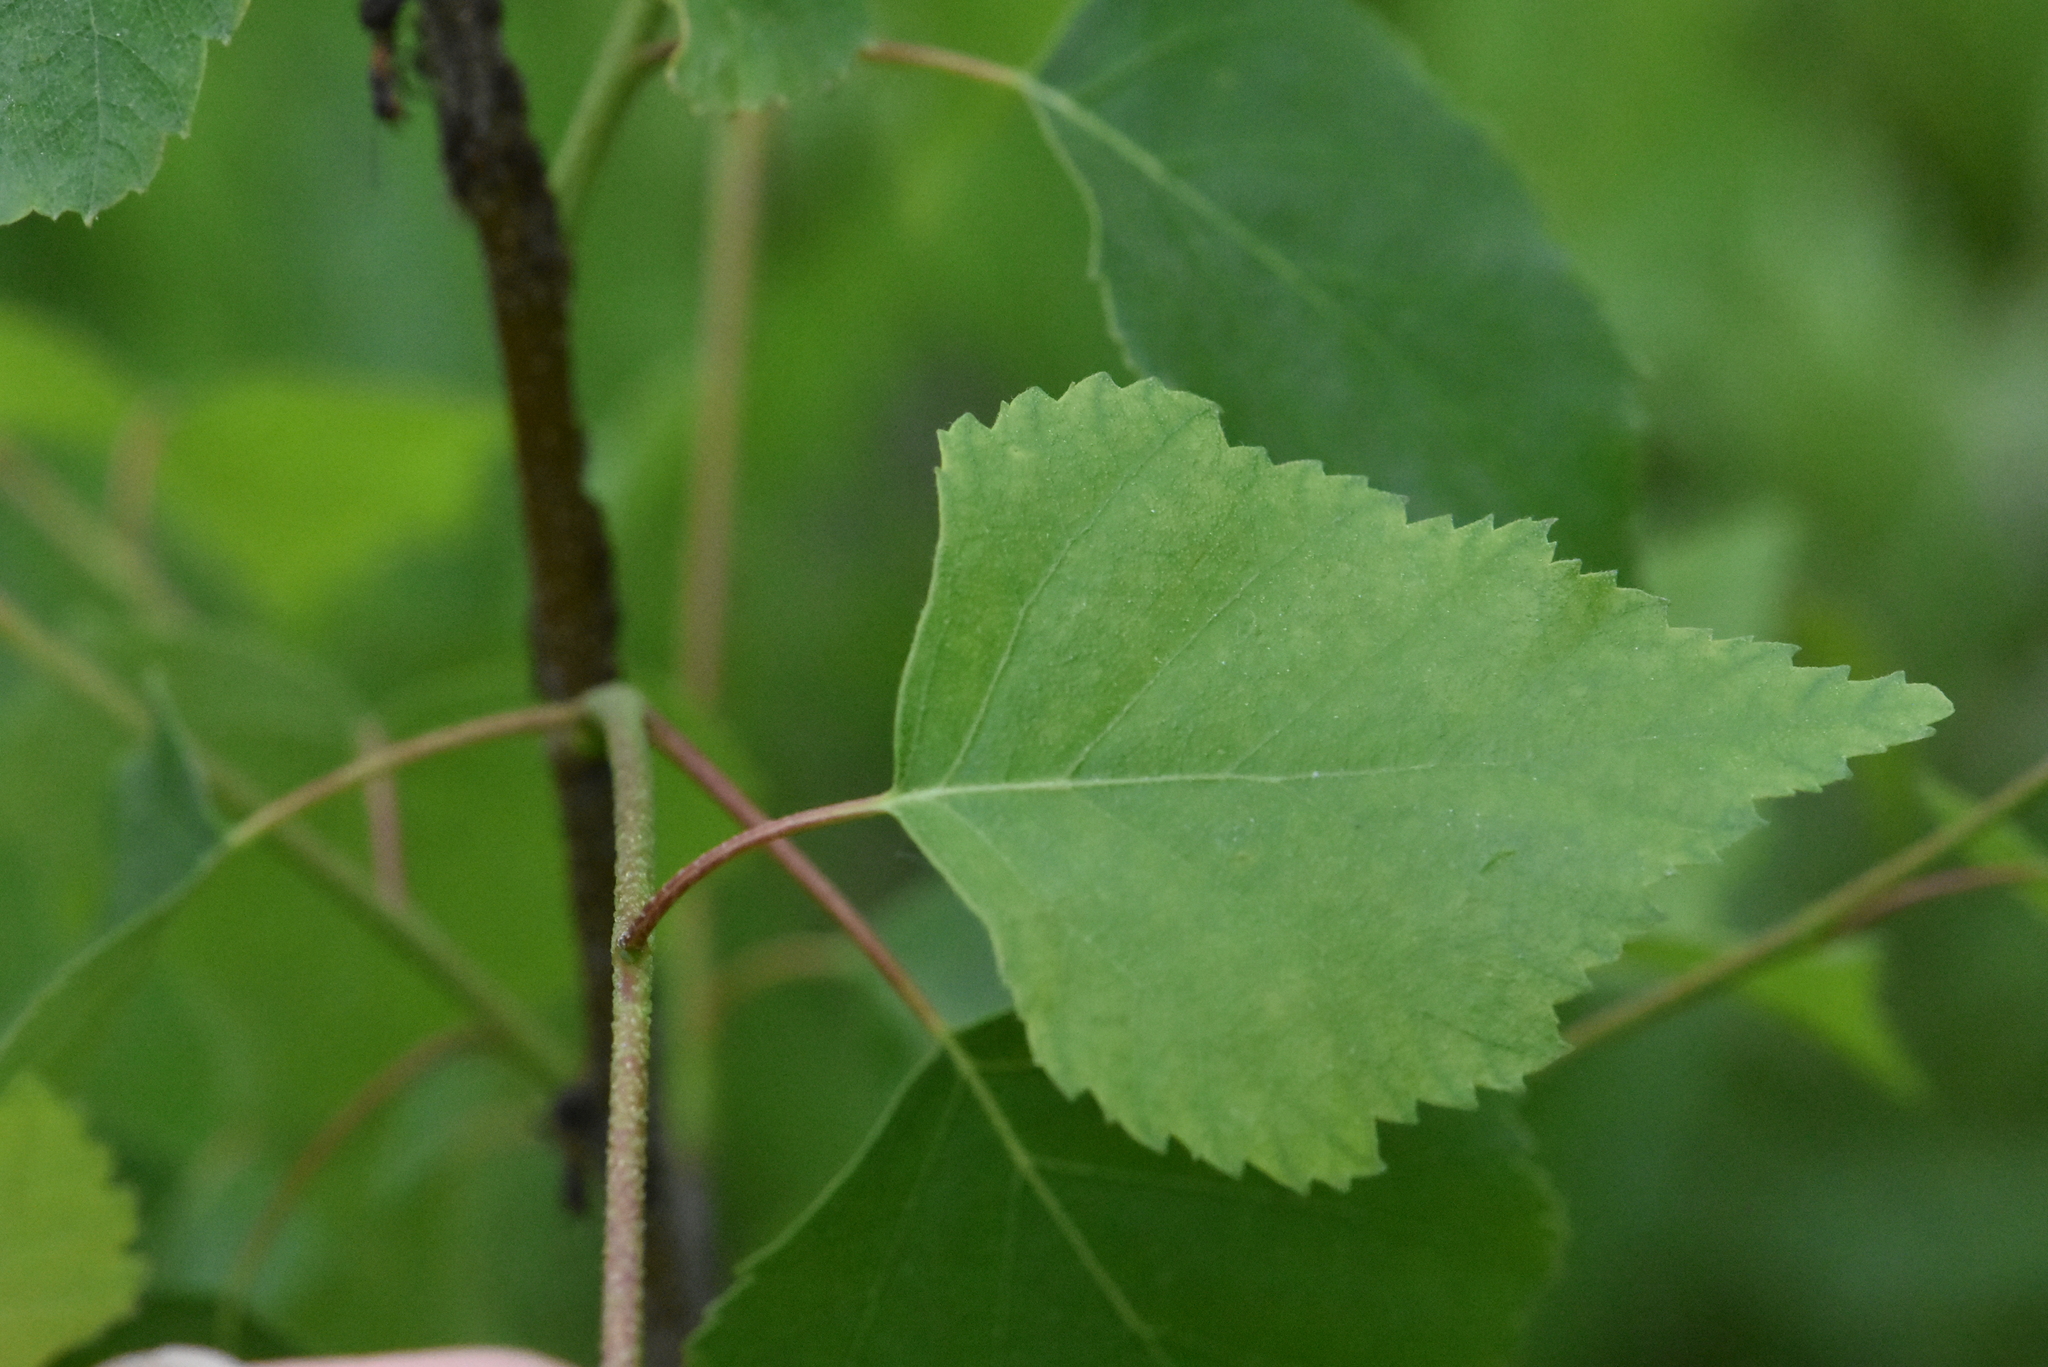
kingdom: Plantae
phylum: Tracheophyta
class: Magnoliopsida
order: Fagales
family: Betulaceae
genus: Betula
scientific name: Betula pendula
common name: Silver birch
